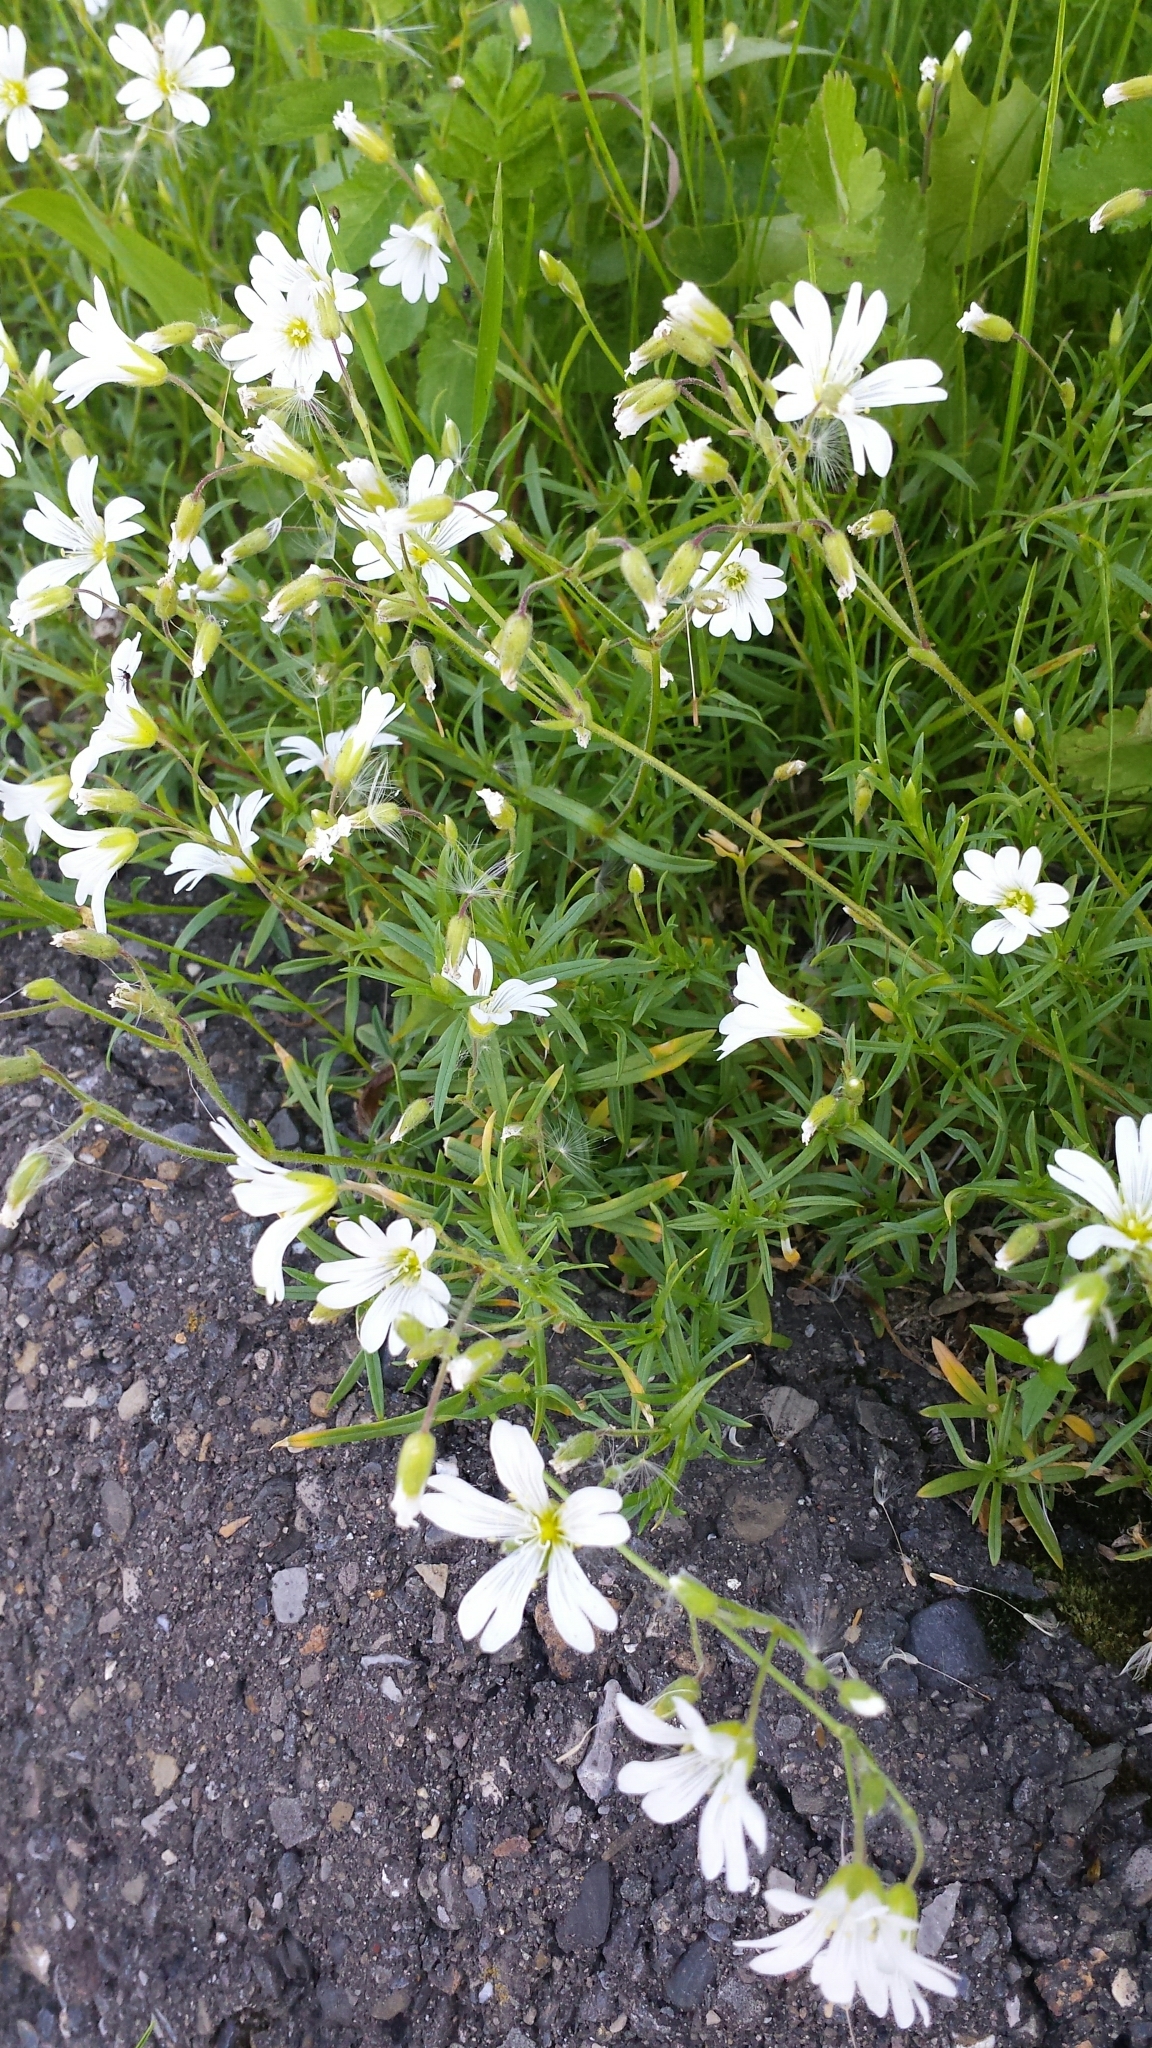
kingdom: Plantae
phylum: Tracheophyta
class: Magnoliopsida
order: Caryophyllales
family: Caryophyllaceae
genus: Cerastium
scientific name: Cerastium arvense
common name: Field mouse-ear
